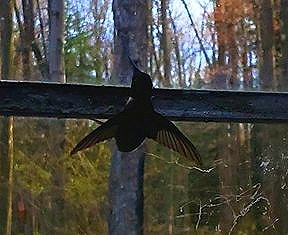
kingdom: Animalia
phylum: Chordata
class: Aves
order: Apodiformes
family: Trochilidae
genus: Archilochus
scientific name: Archilochus colubris
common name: Ruby-throated hummingbird
